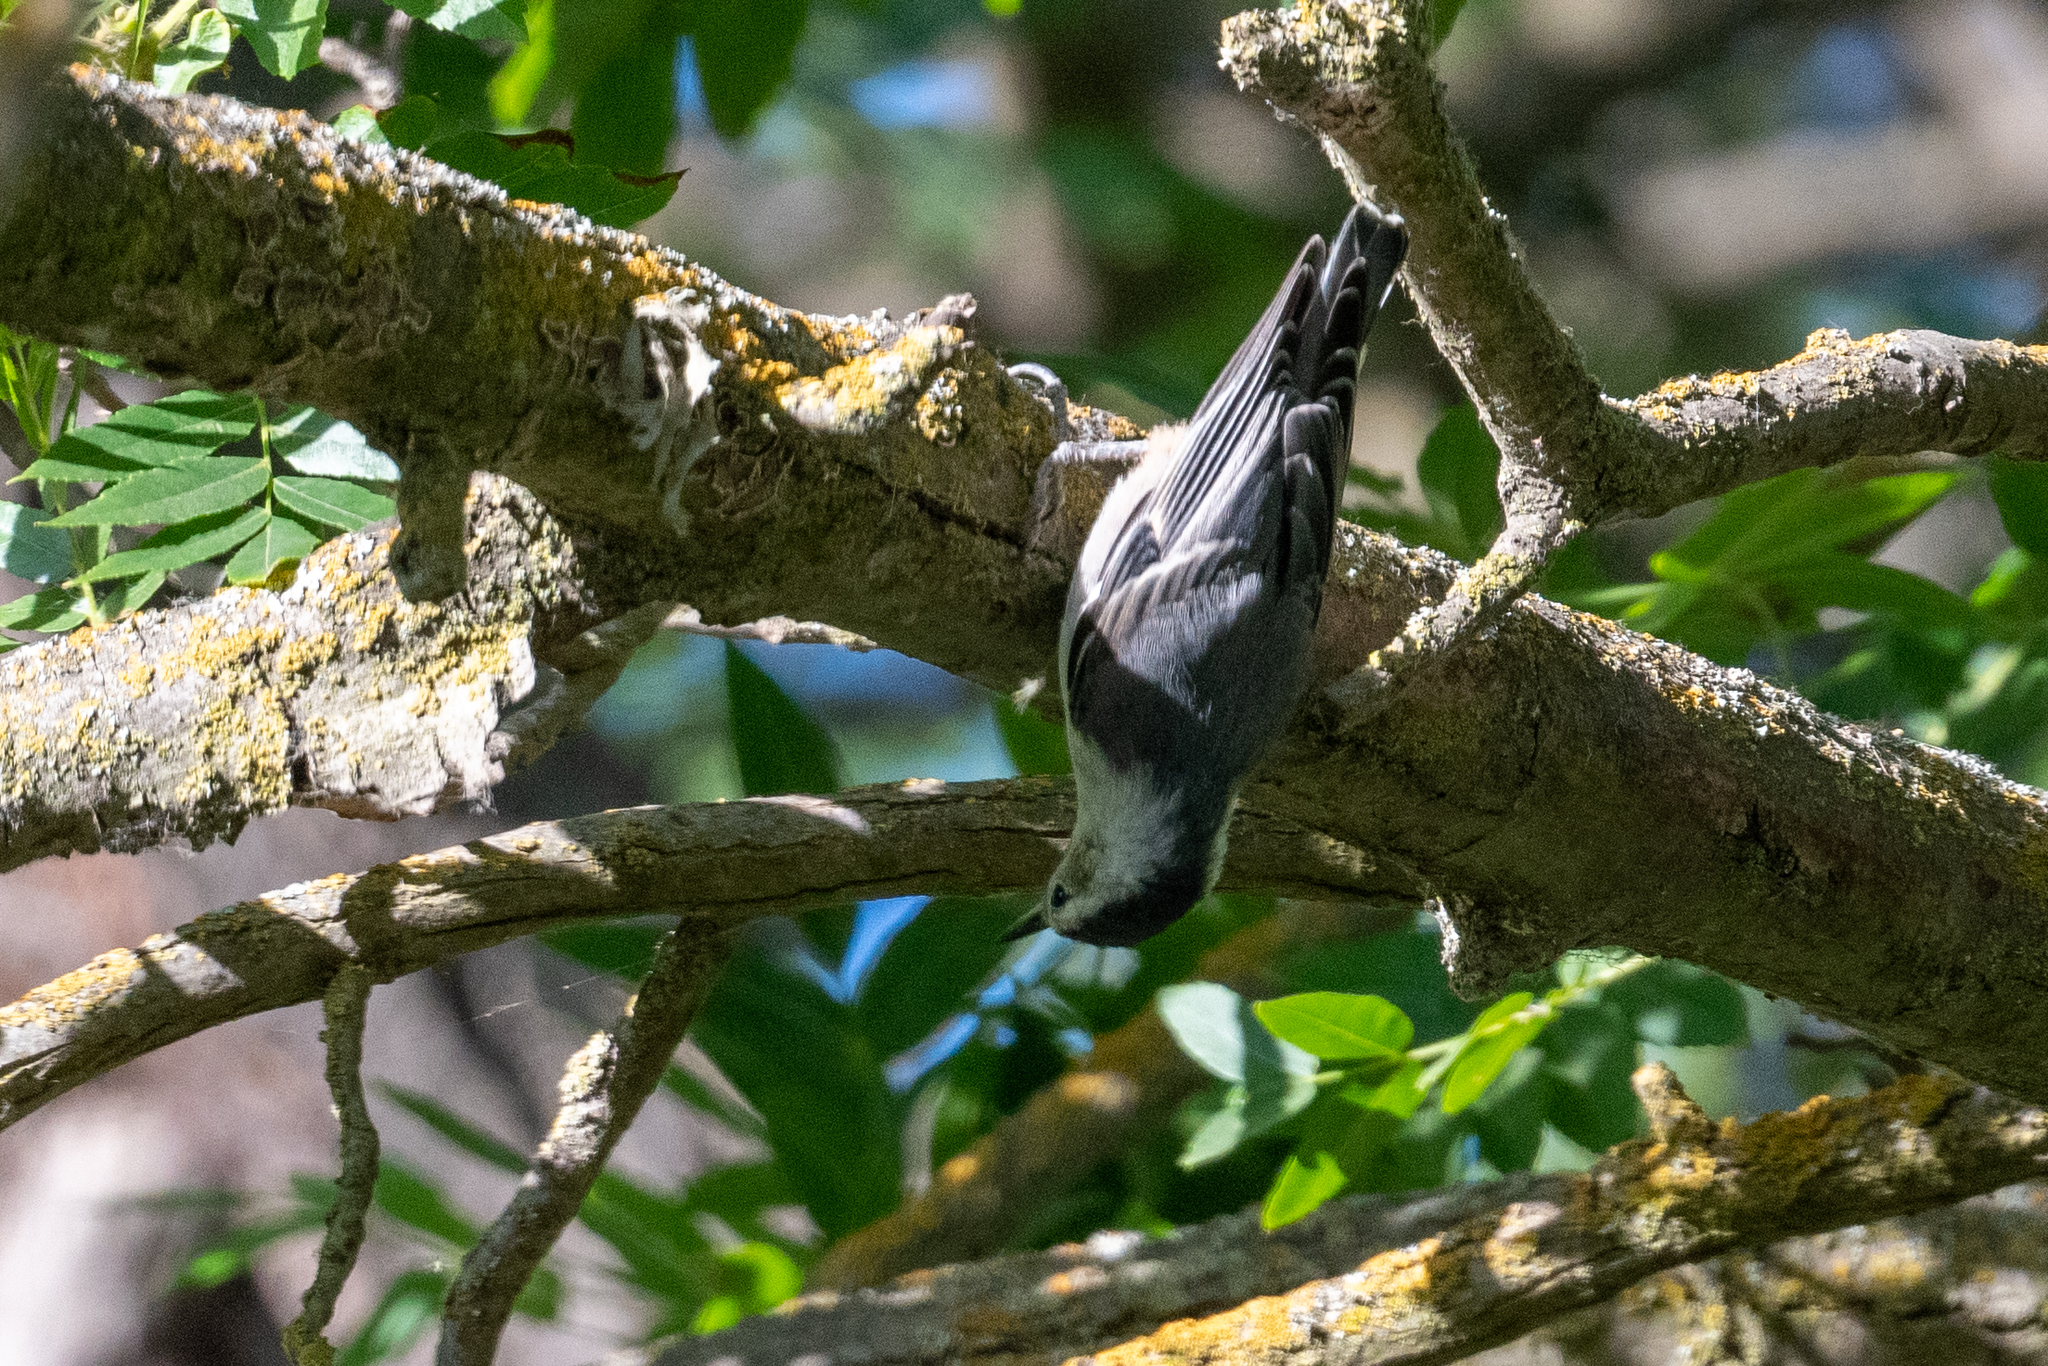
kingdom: Animalia
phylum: Chordata
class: Aves
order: Passeriformes
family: Sittidae
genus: Sitta
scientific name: Sitta carolinensis
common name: White-breasted nuthatch
